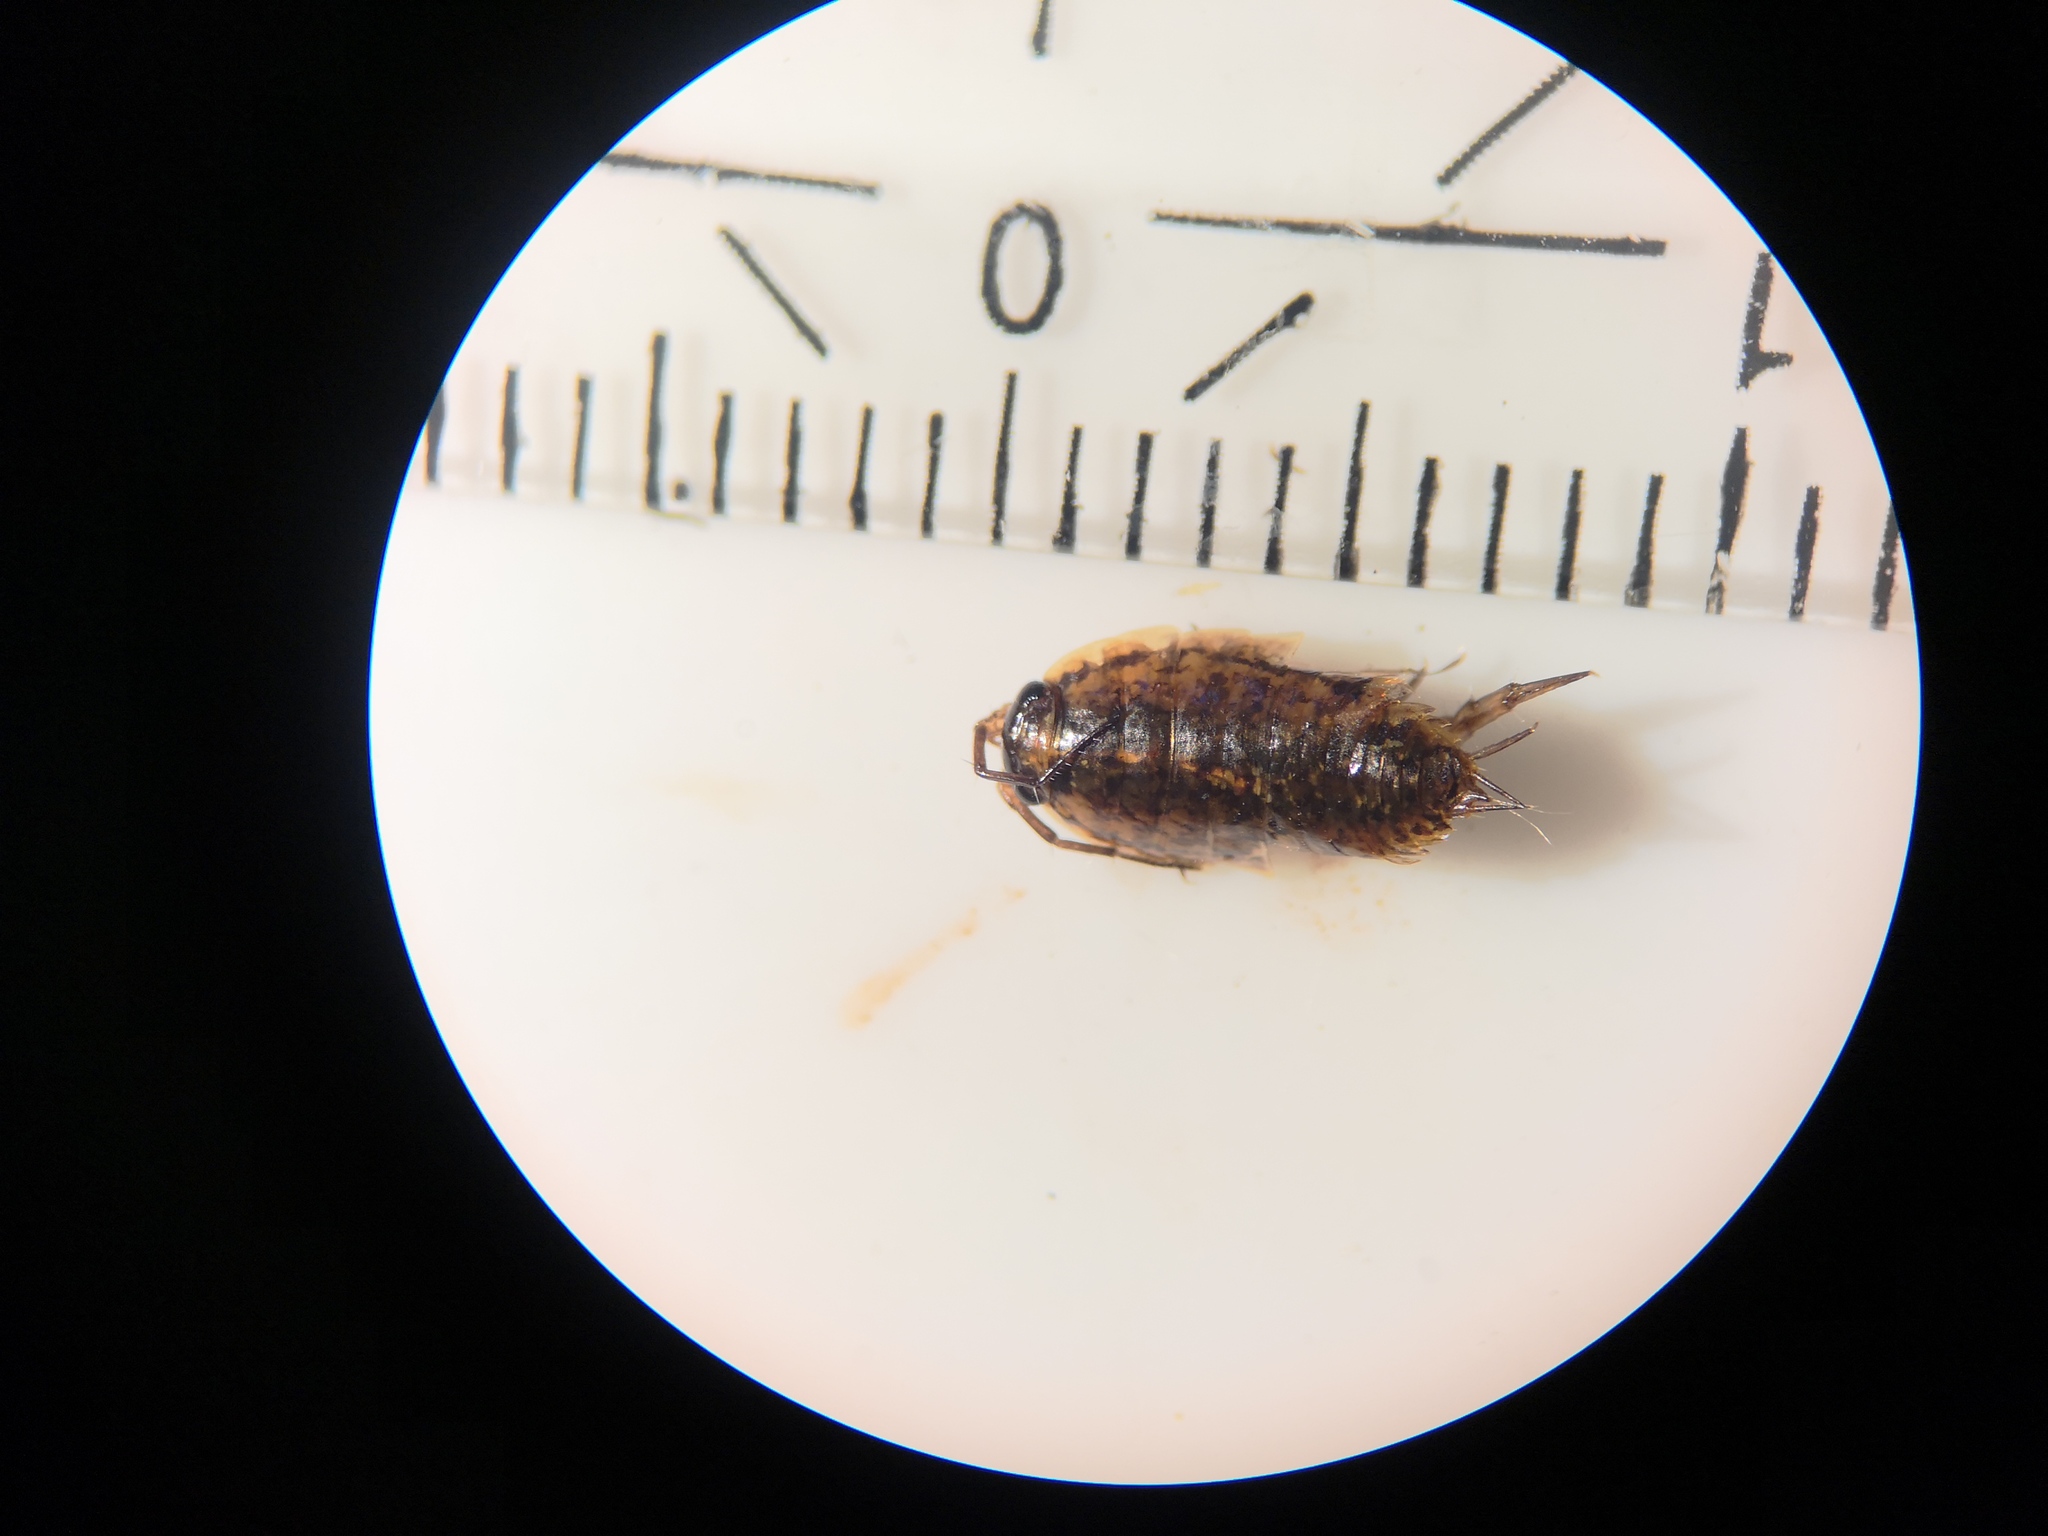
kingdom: Animalia
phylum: Arthropoda
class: Malacostraca
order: Isopoda
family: Ligiidae
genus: Ligidium
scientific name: Ligidium hypnorum
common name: Moss slater
